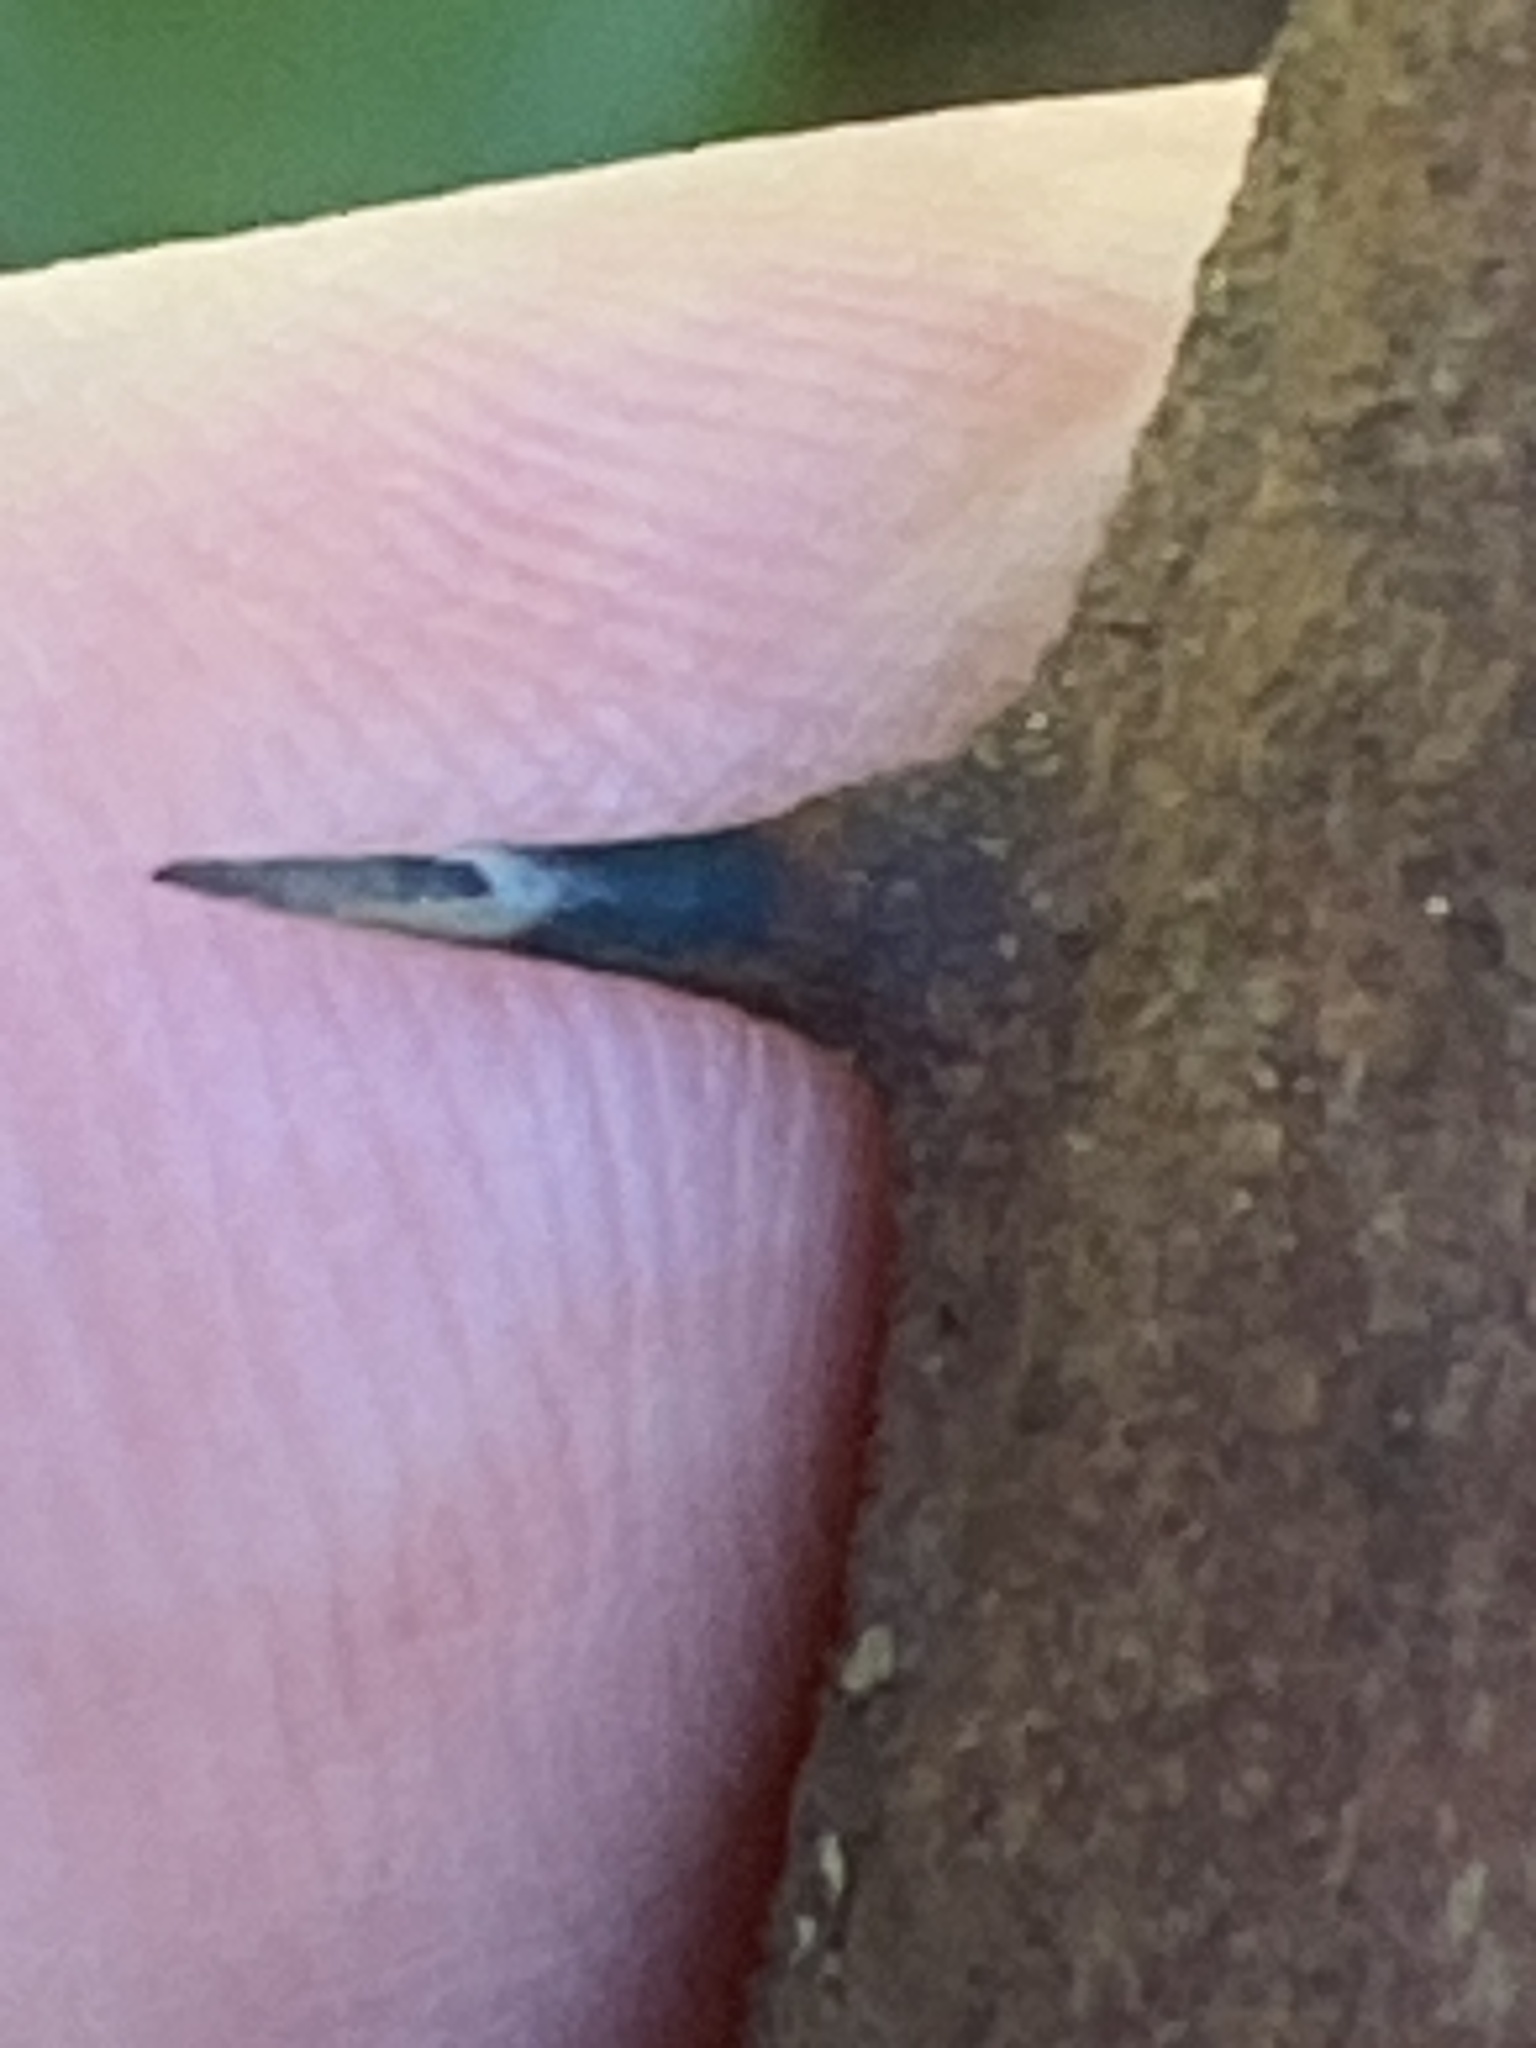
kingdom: Plantae
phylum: Tracheophyta
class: Liliopsida
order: Liliales
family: Smilacaceae
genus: Smilax
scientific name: Smilax bona-nox
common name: Catbrier
